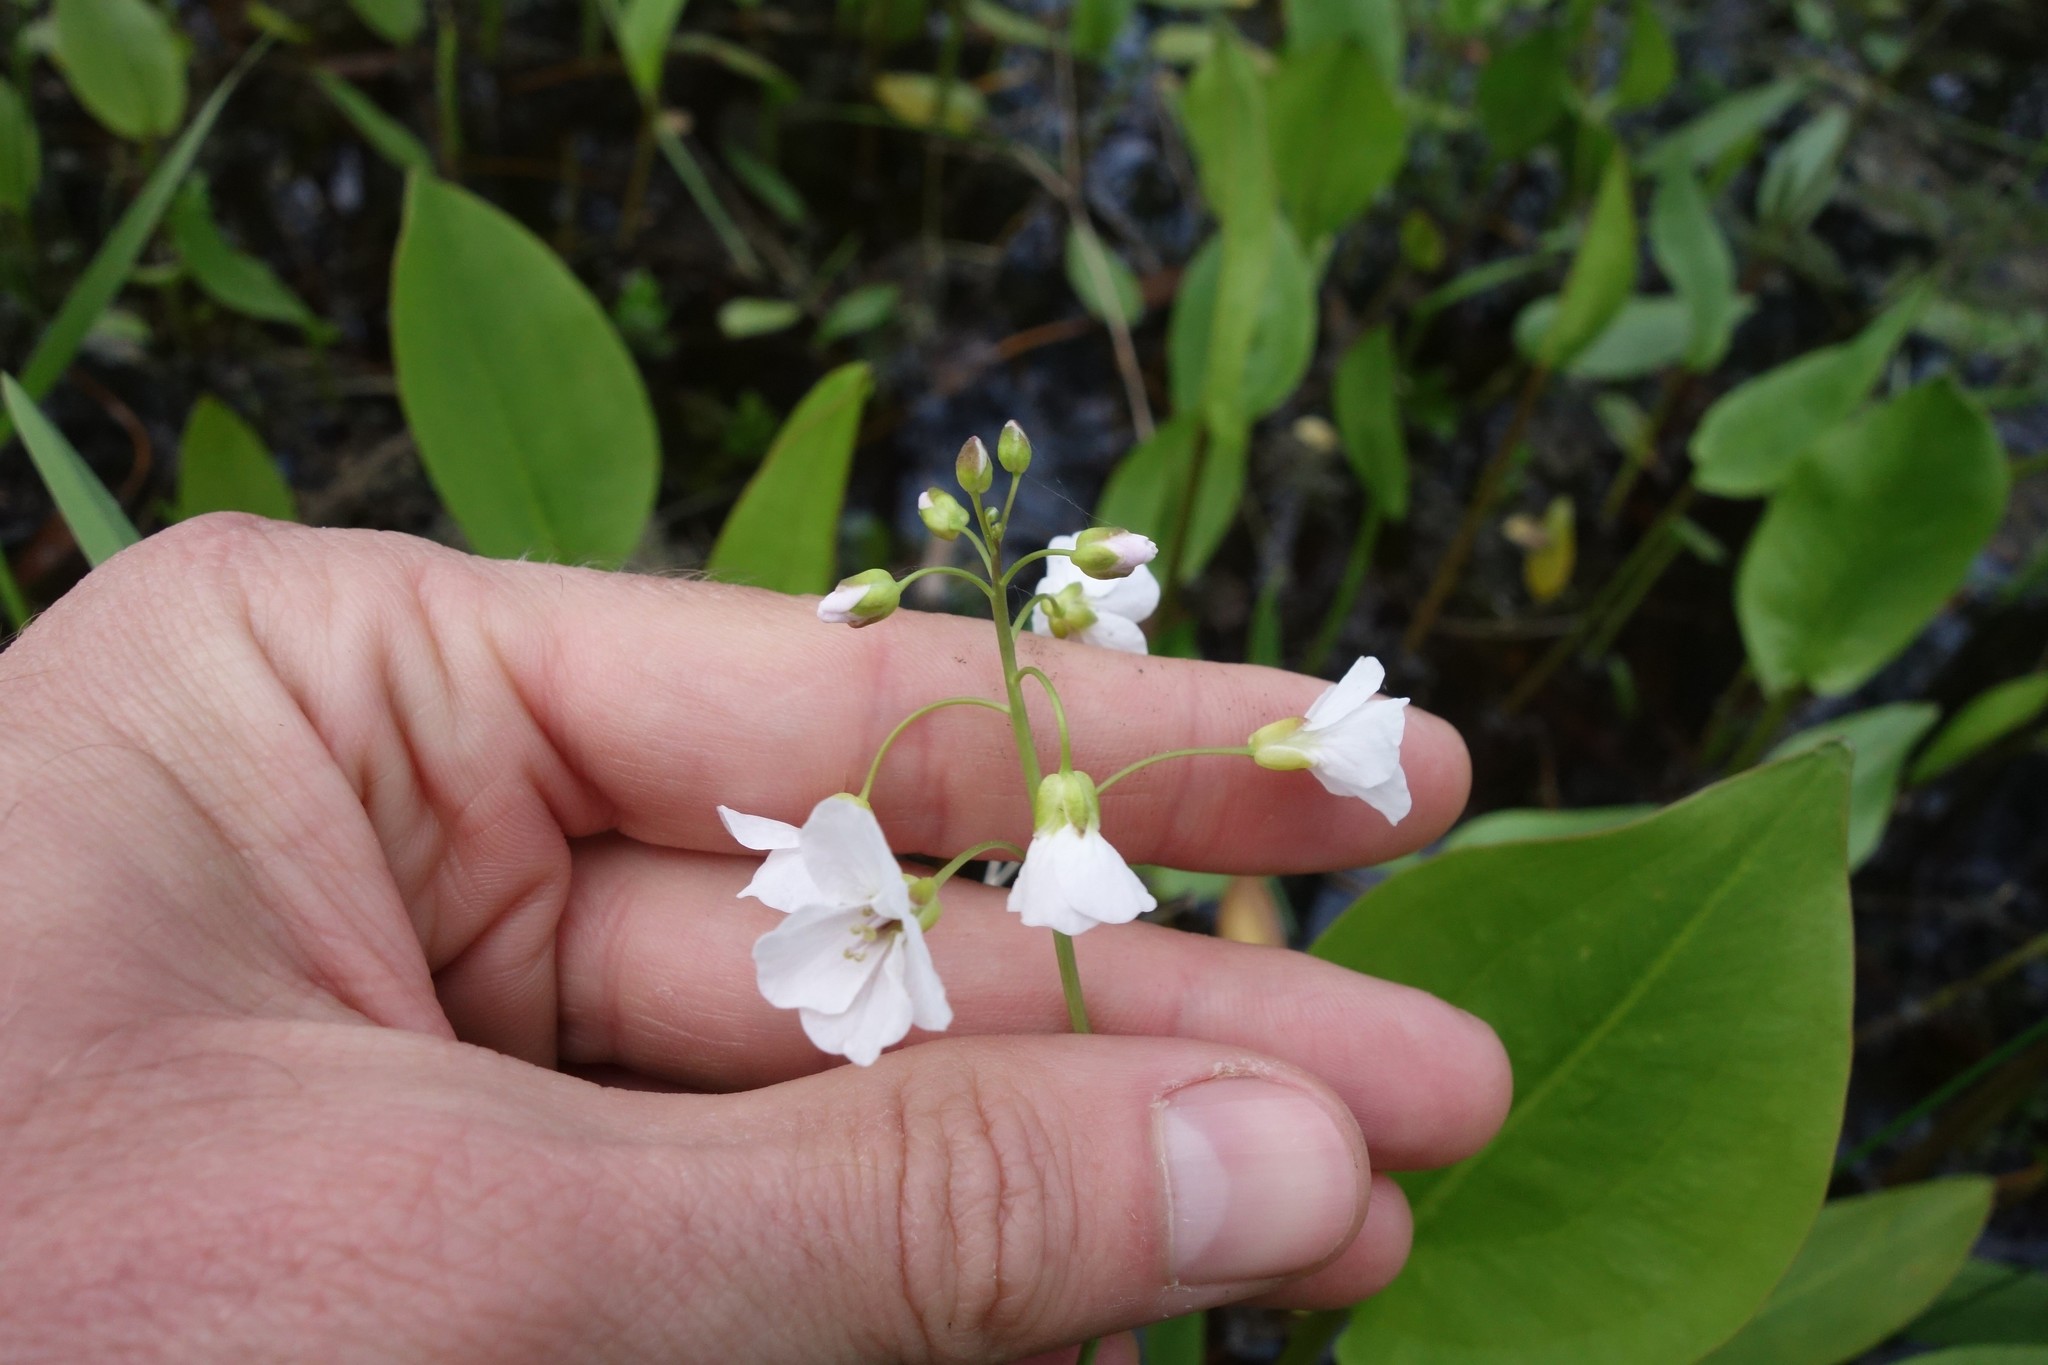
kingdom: Plantae
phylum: Tracheophyta
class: Magnoliopsida
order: Brassicales
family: Brassicaceae
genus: Cardamine
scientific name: Cardamine dentata
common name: Toothed bittercress
